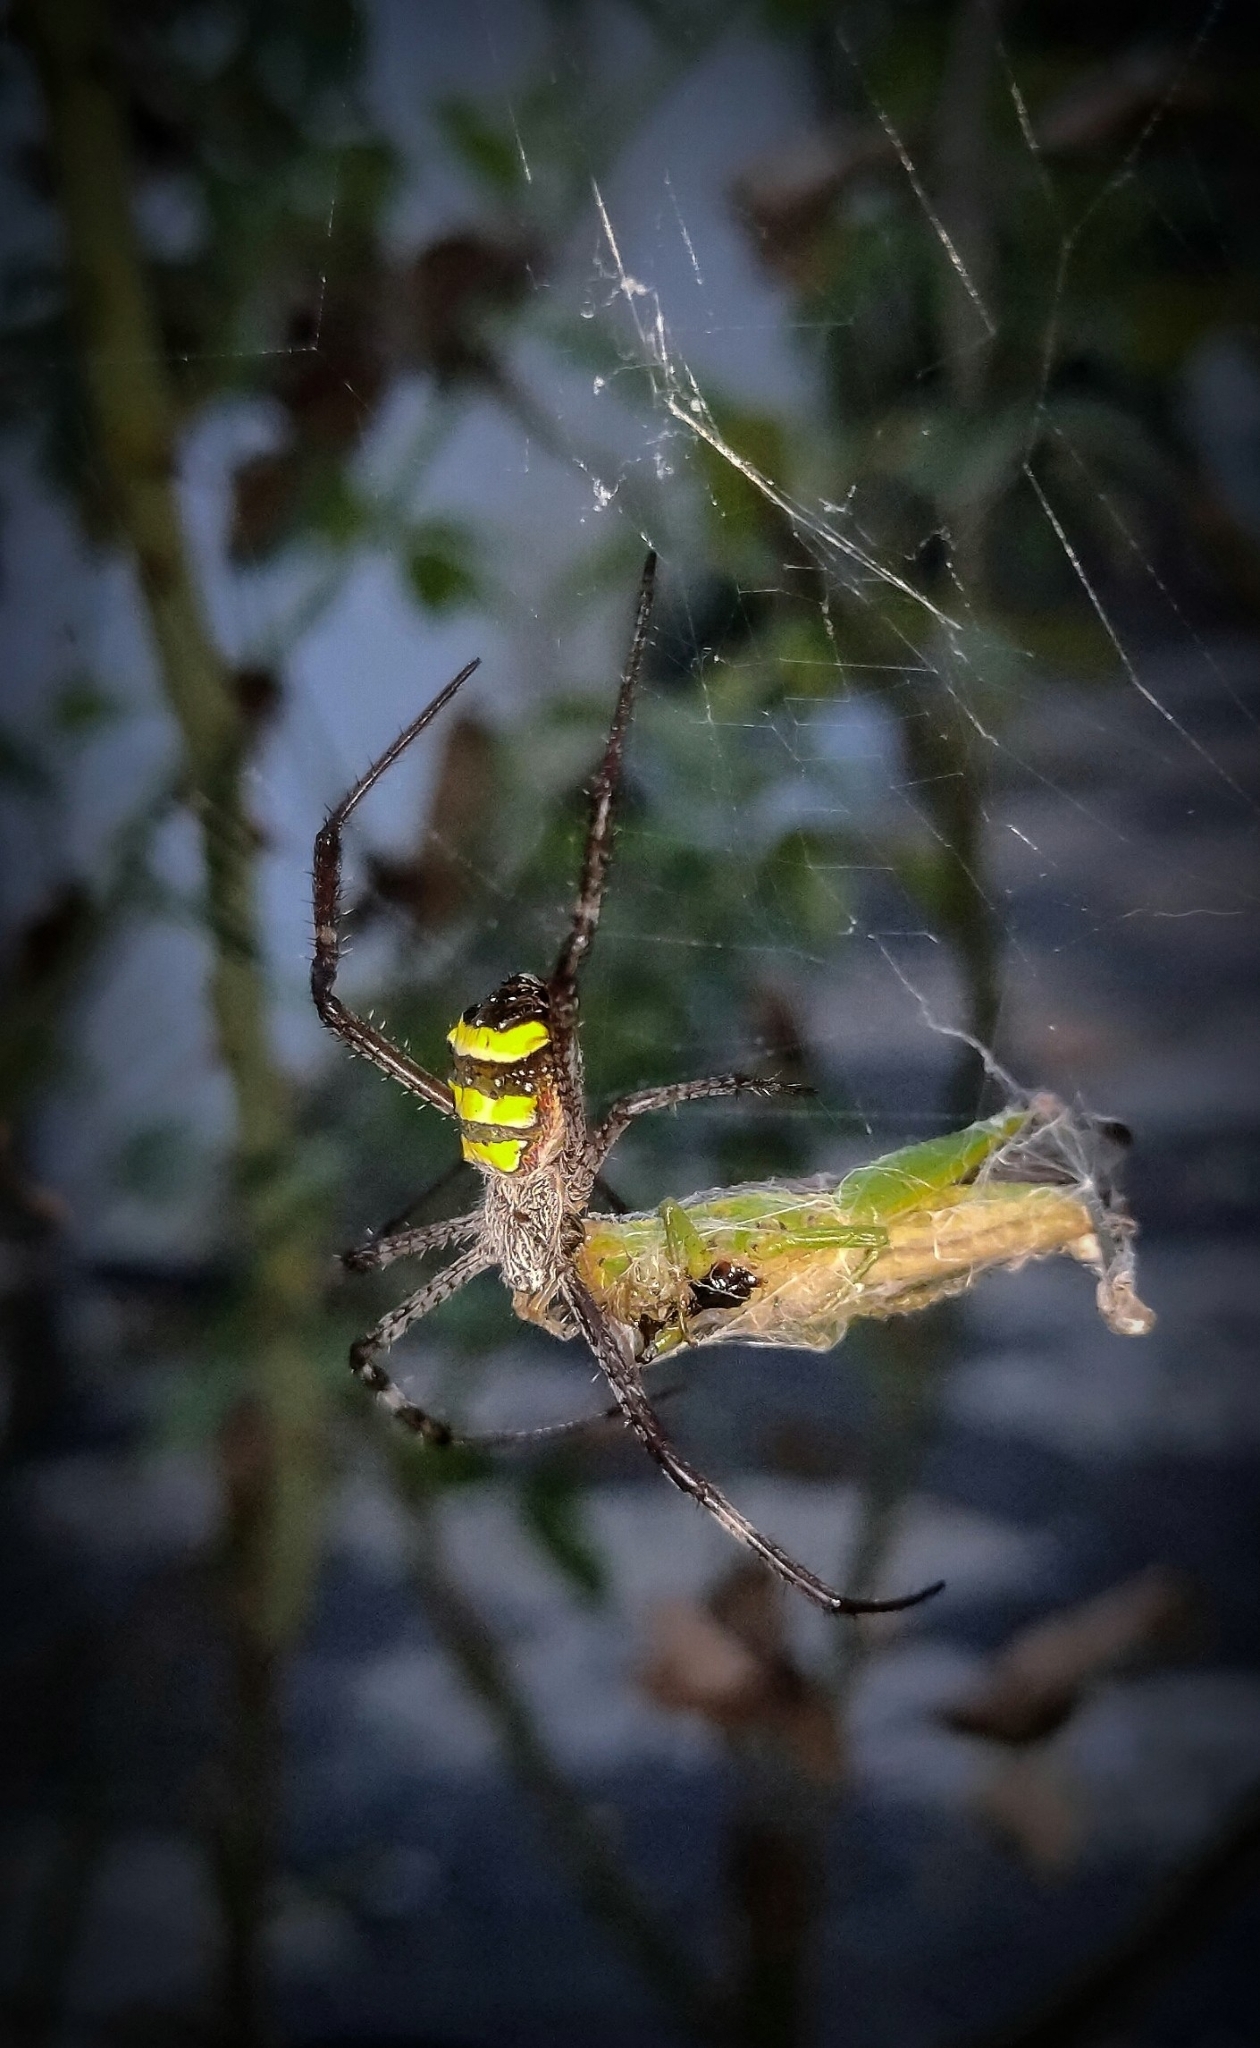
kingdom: Animalia
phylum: Arthropoda
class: Arachnida
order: Araneae
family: Araneidae
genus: Argiope
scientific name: Argiope taprobanica
